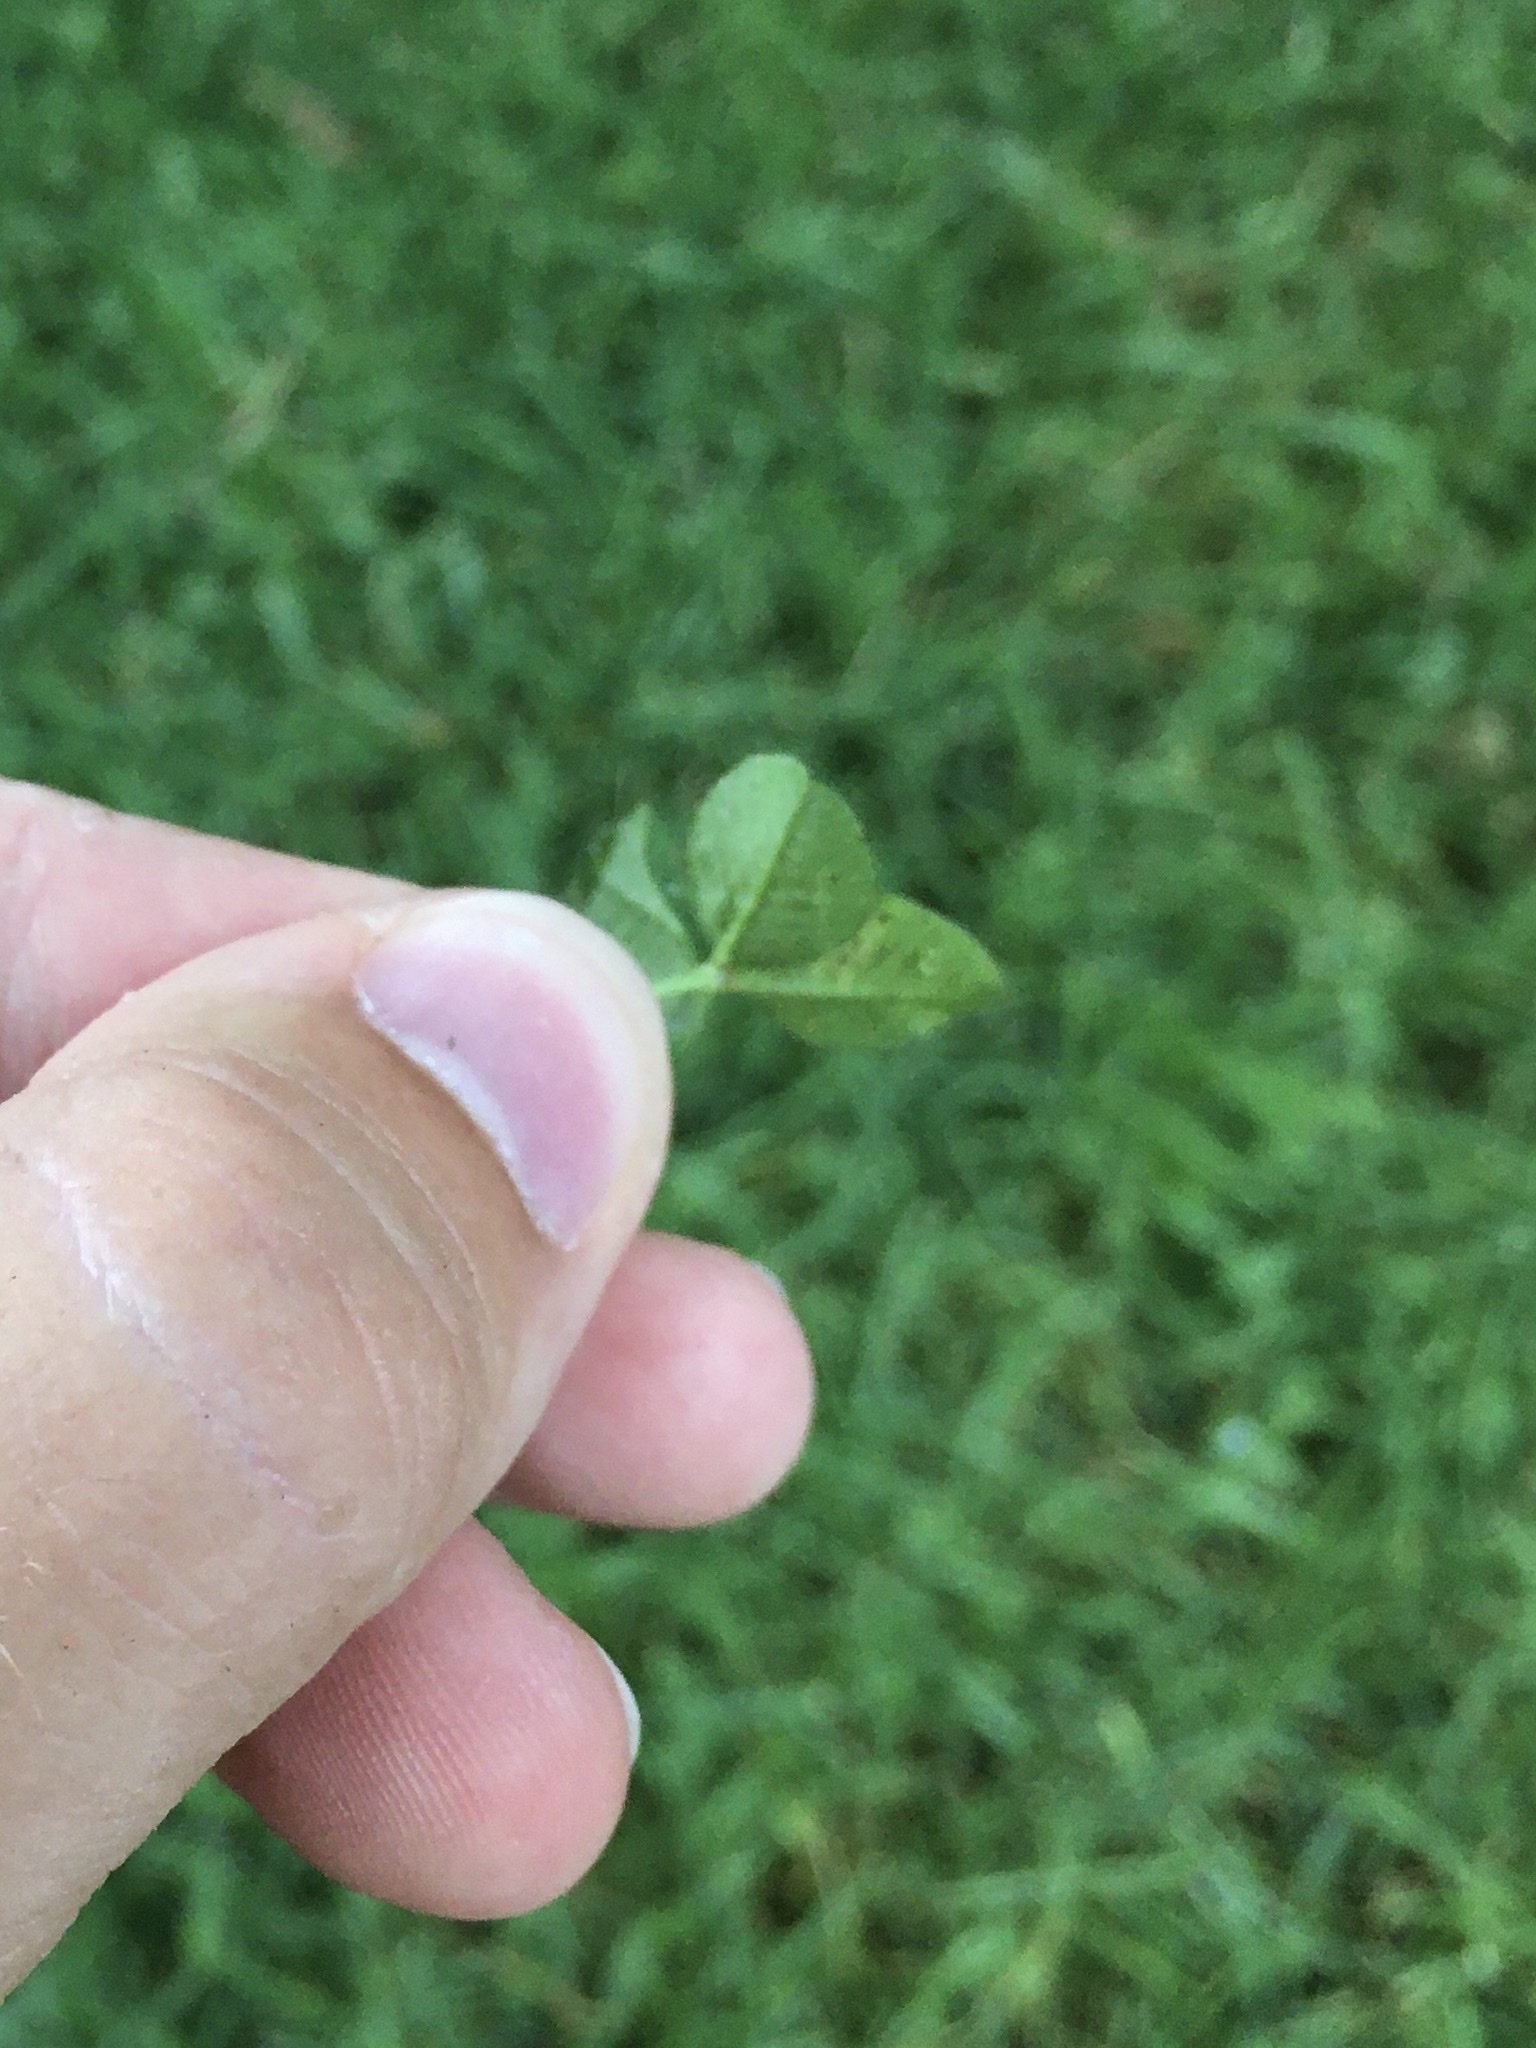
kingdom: Animalia
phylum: Arthropoda
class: Insecta
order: Diptera
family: Agromyzidae
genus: Liriomyza
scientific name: Liriomyza fricki
